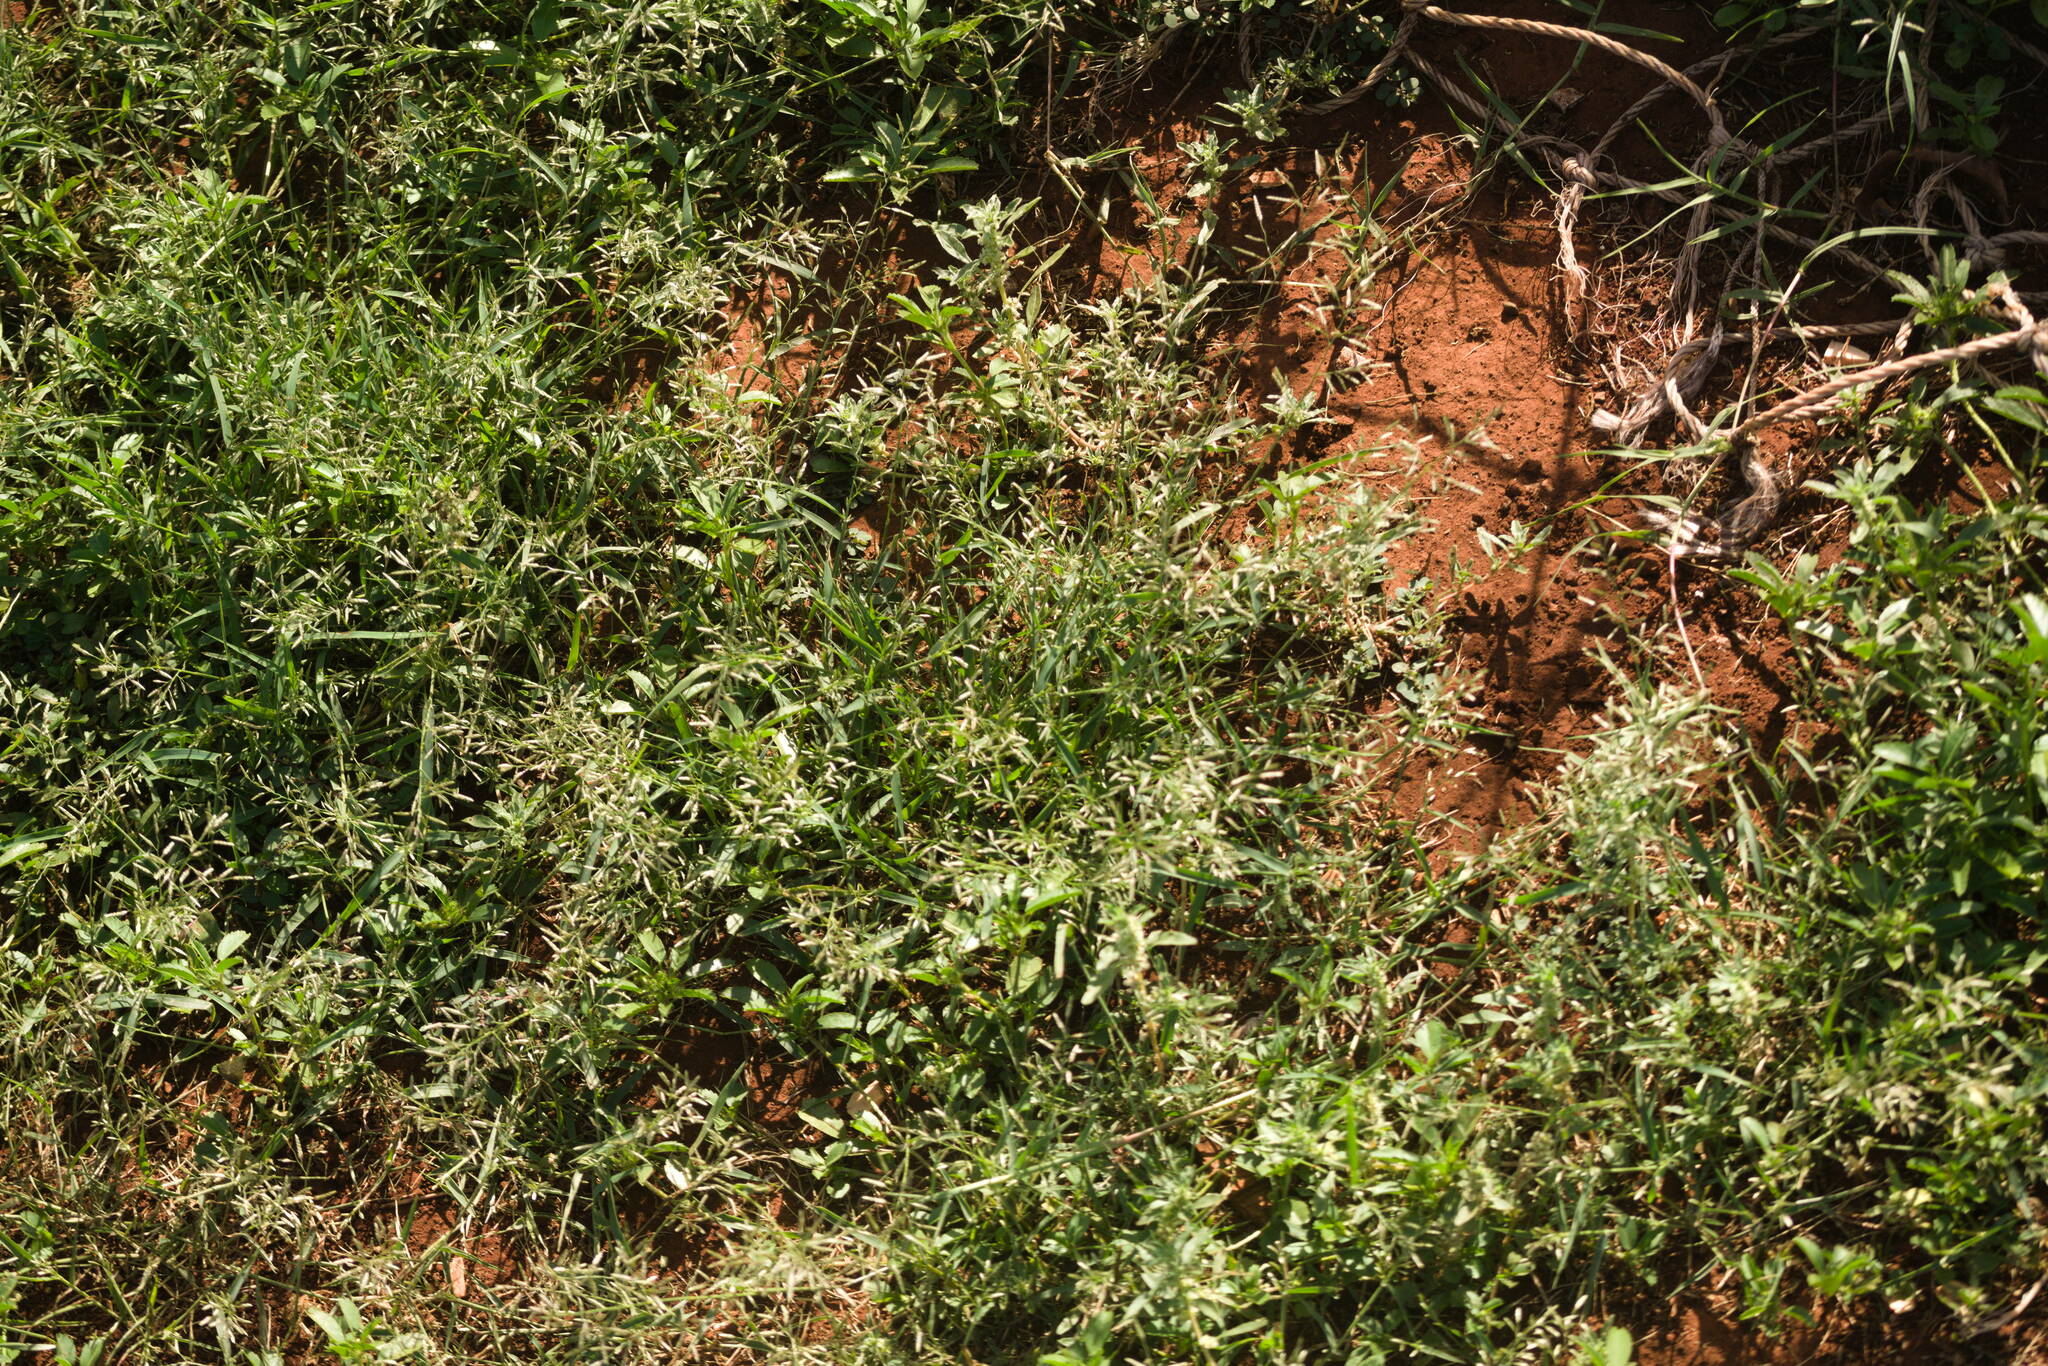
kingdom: Plantae
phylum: Tracheophyta
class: Liliopsida
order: Poales
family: Poaceae
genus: Eragrostis
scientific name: Eragrostis barrelieri
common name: Mediterranean lovegrass
